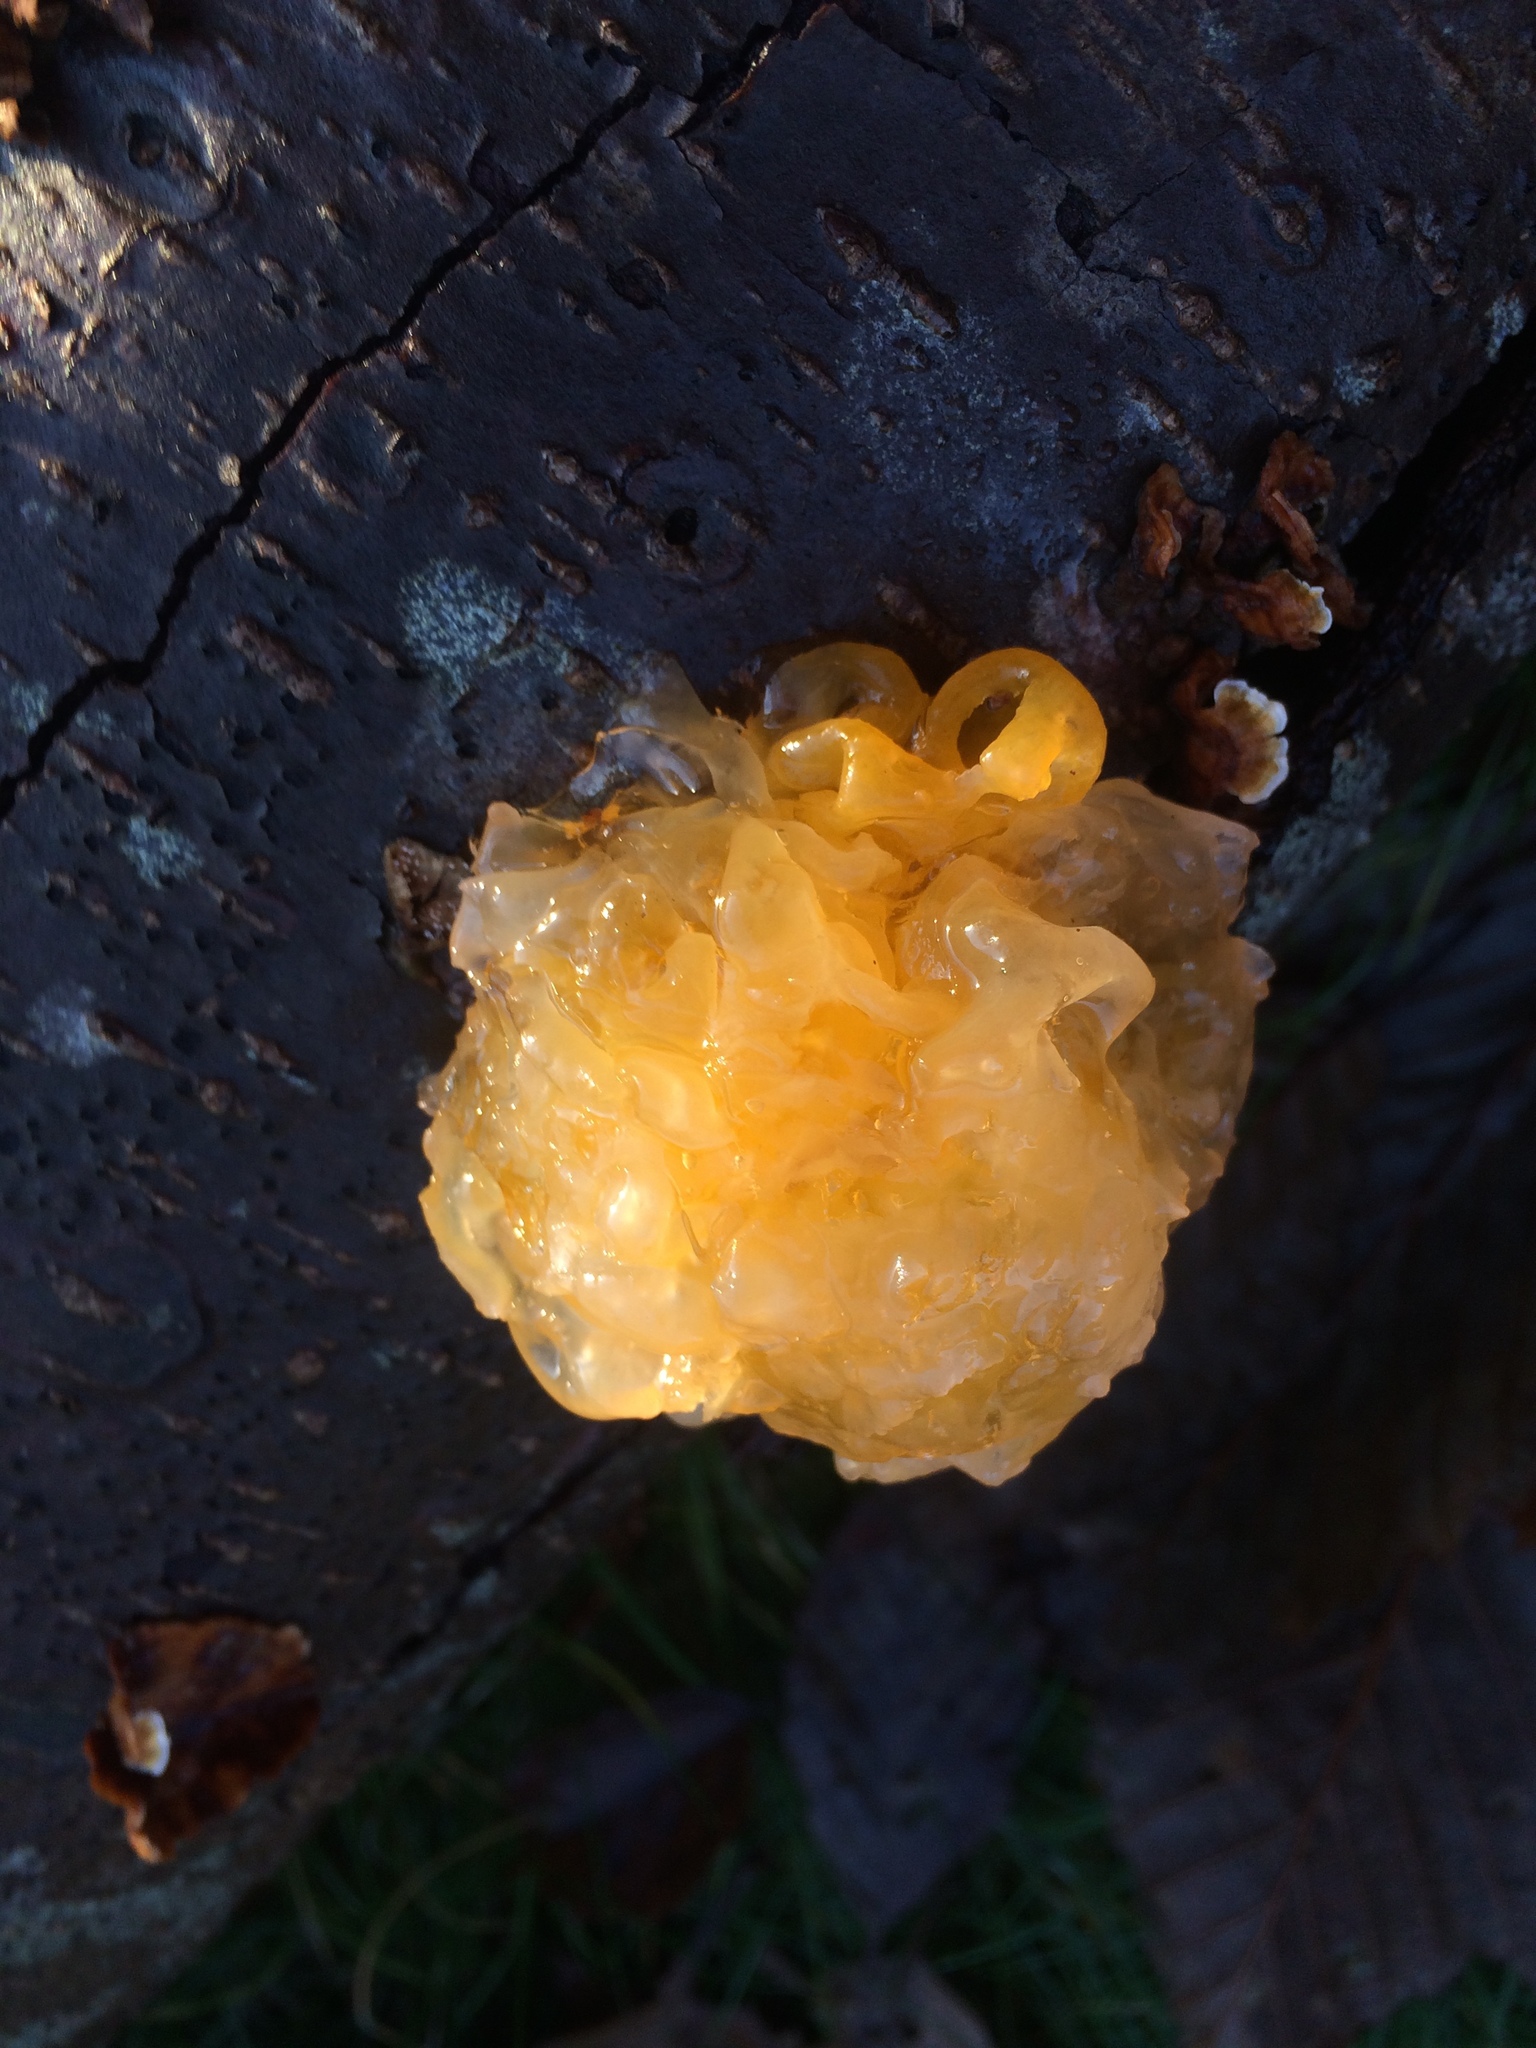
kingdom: Fungi
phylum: Basidiomycota
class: Tremellomycetes
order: Tremellales
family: Naemateliaceae
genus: Naematelia
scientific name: Naematelia aurantia
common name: Golden ear
